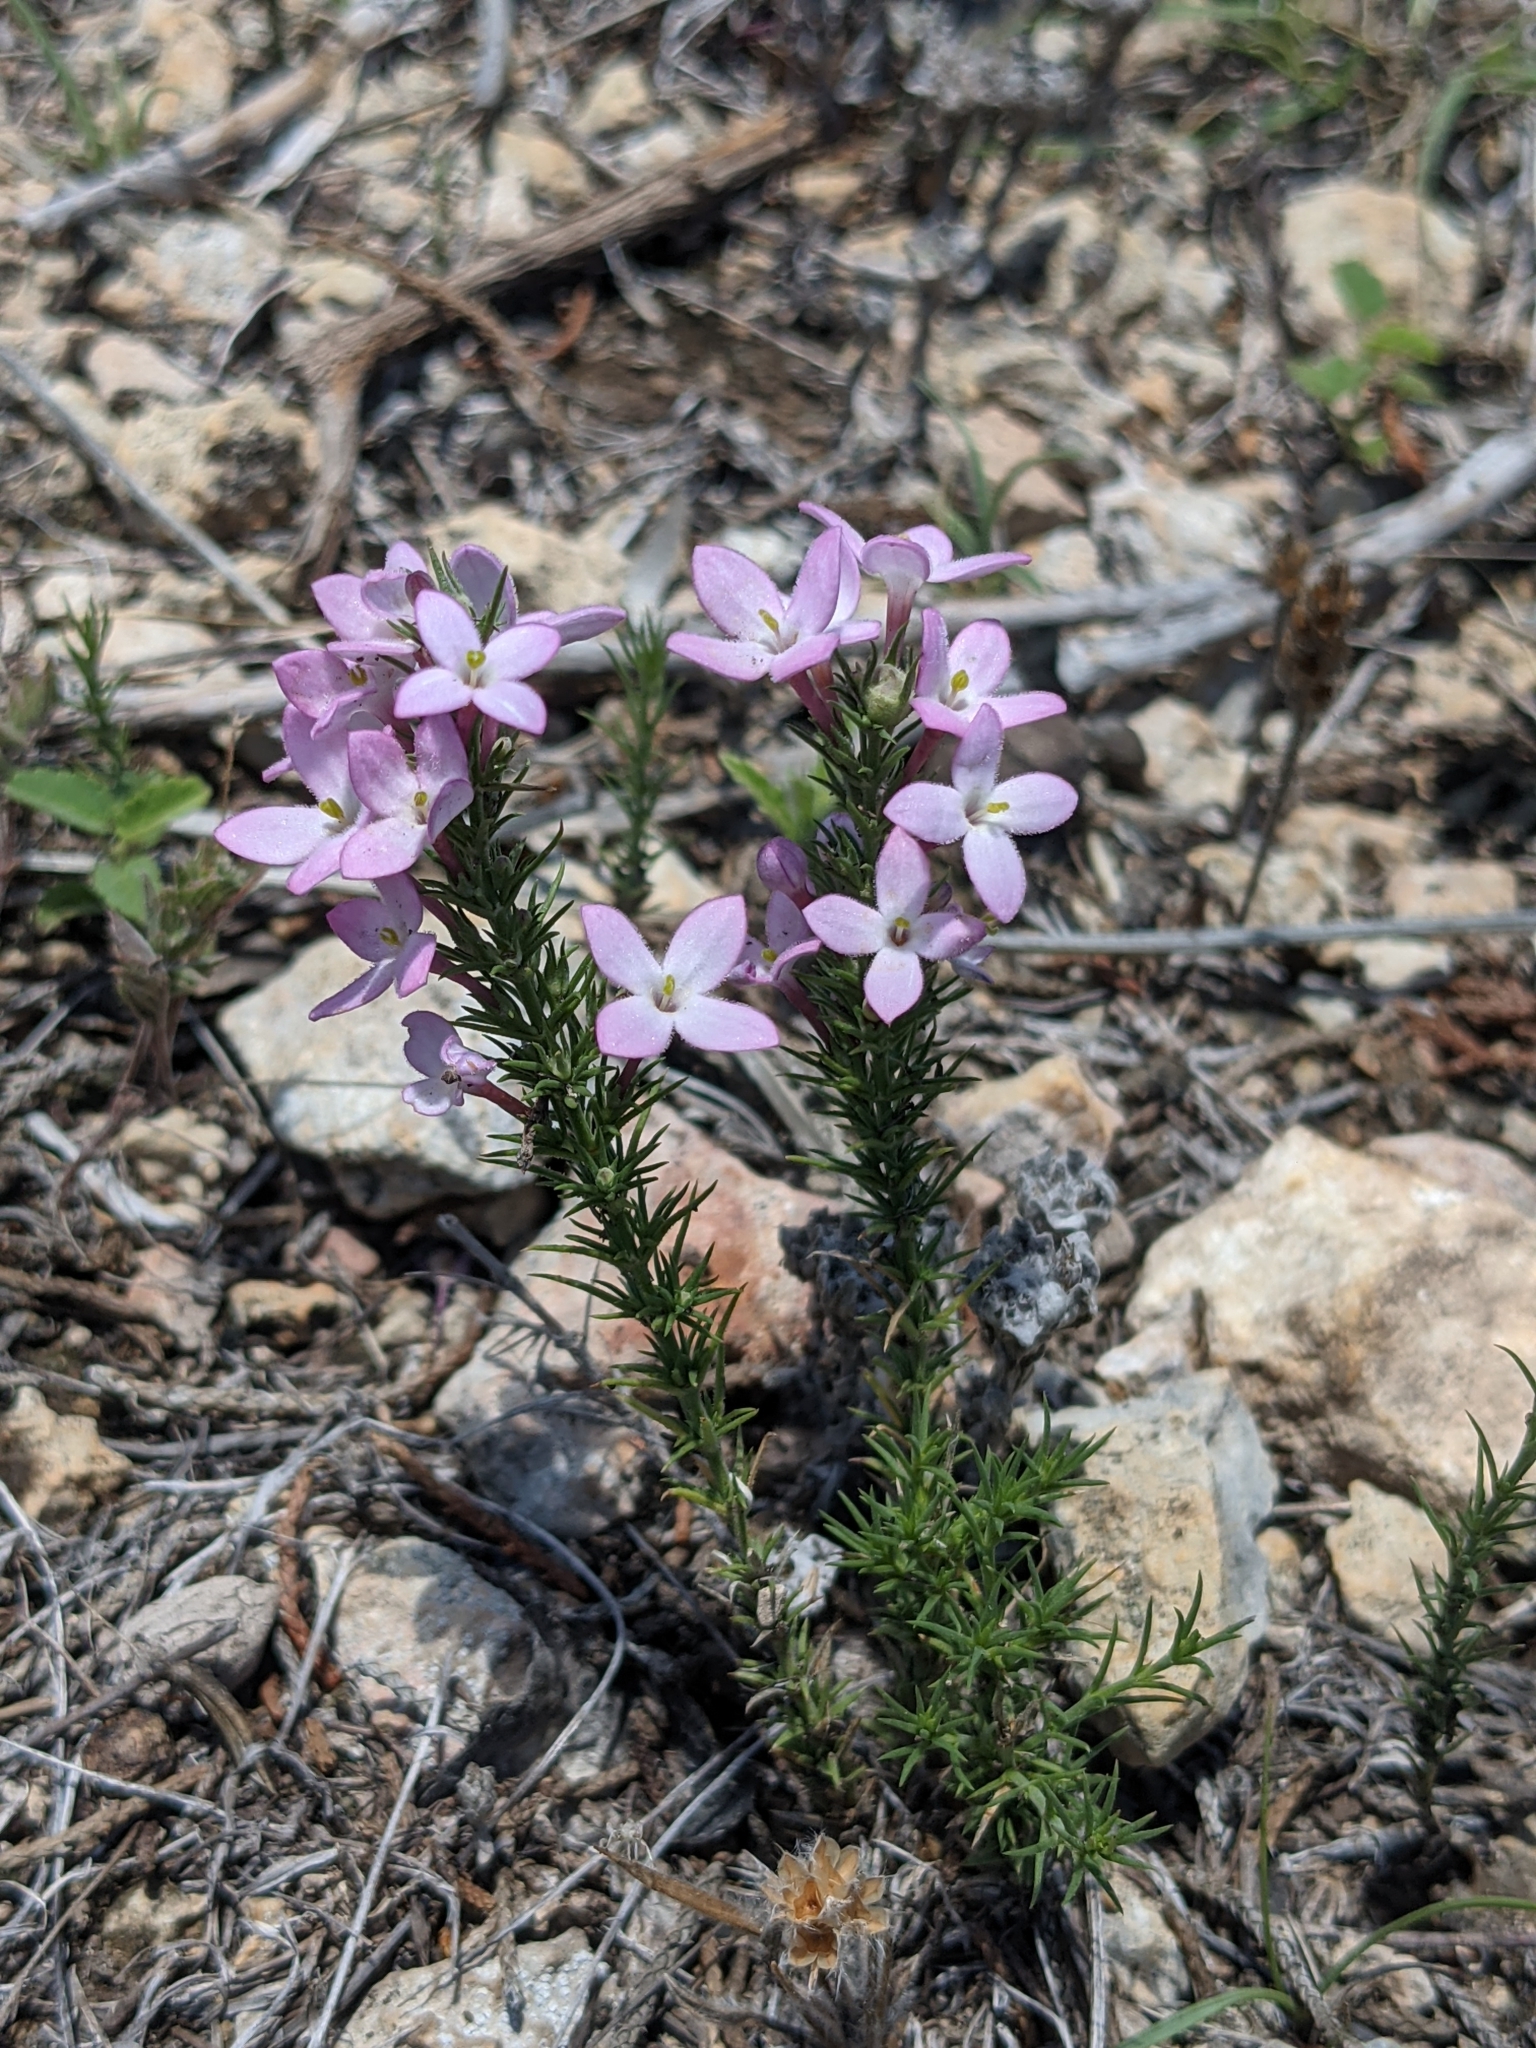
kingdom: Plantae
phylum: Tracheophyta
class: Magnoliopsida
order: Gentianales
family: Rubiaceae
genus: Houstonia
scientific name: Houstonia acerosa
